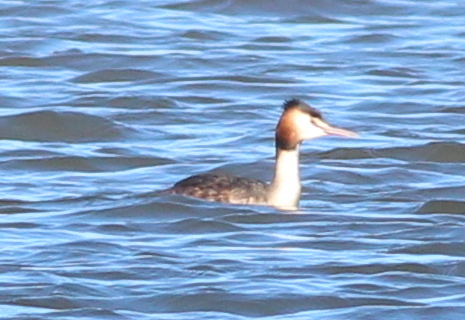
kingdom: Animalia
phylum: Chordata
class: Aves
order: Podicipediformes
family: Podicipedidae
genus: Podiceps
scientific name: Podiceps cristatus
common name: Great crested grebe
